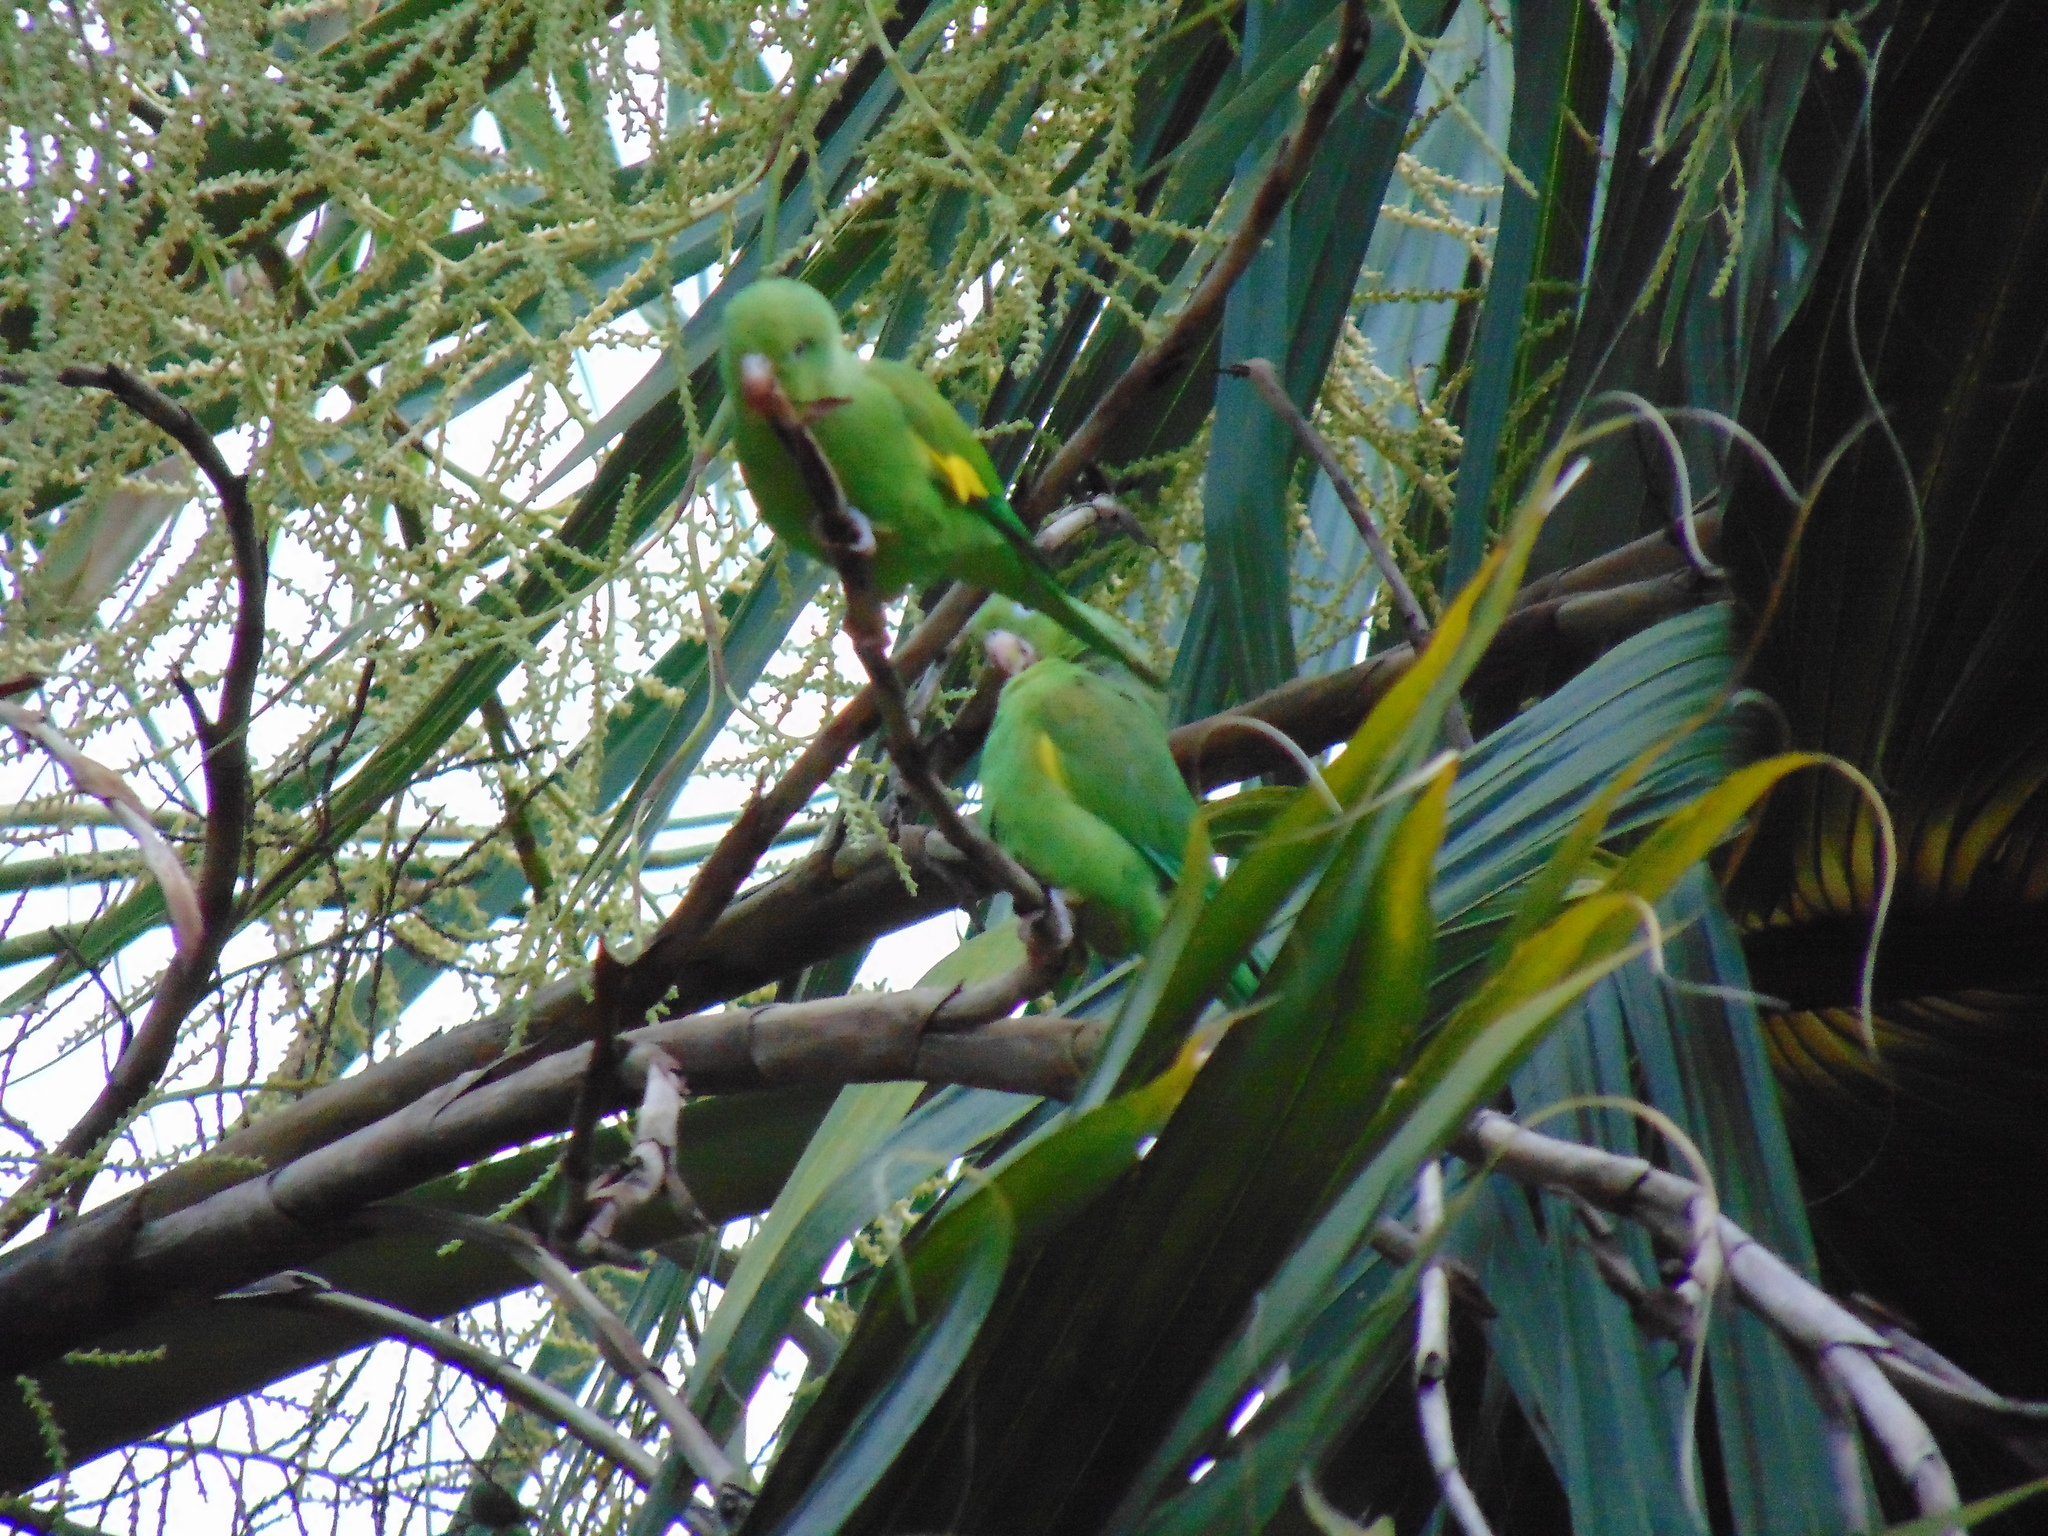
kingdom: Animalia
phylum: Chordata
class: Aves
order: Psittaciformes
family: Psittacidae
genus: Brotogeris
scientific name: Brotogeris chiriri
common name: Yellow-chevroned parakeet
